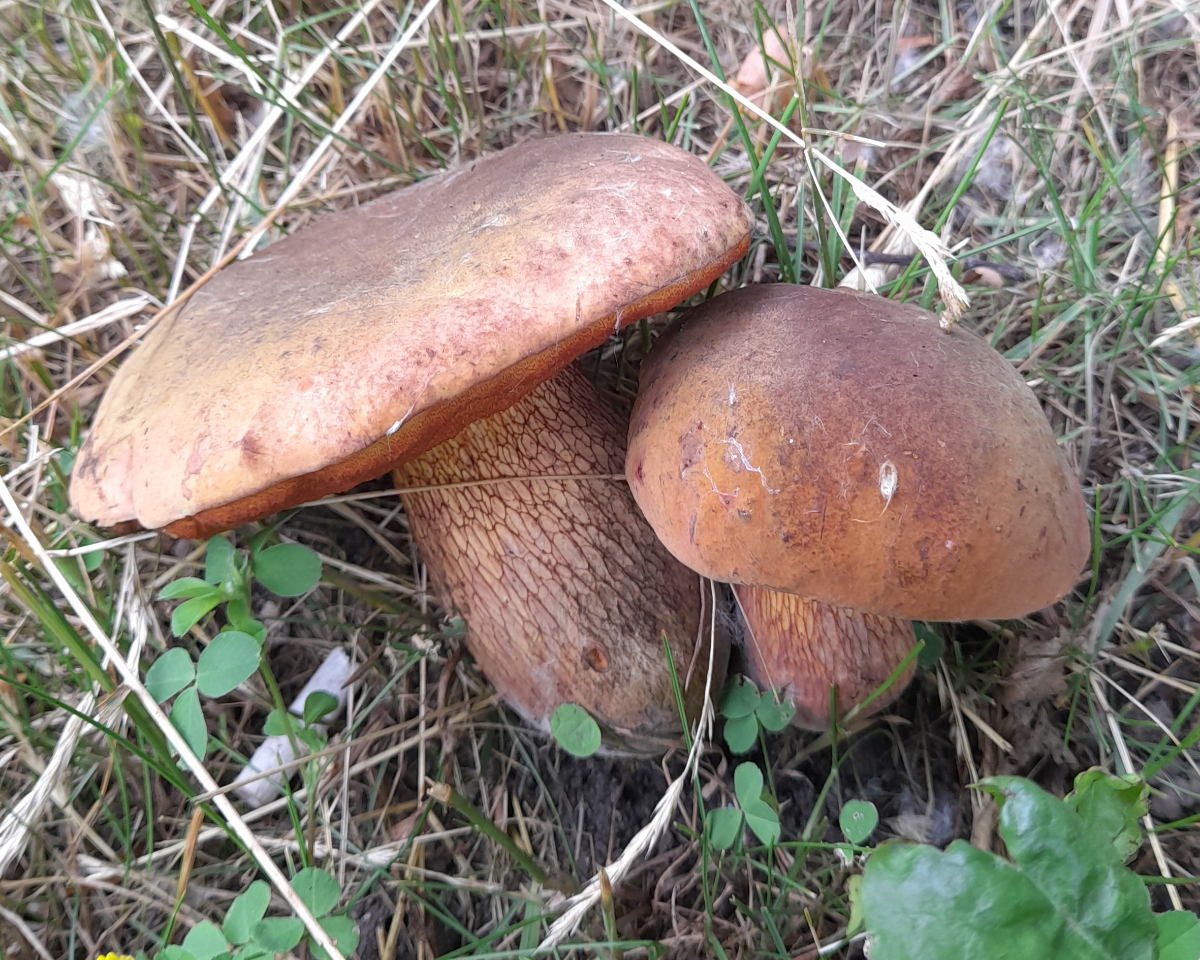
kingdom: Fungi
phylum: Basidiomycota
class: Agaricomycetes
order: Boletales
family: Boletaceae
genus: Suillellus
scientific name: Suillellus luridus
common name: Lurid bolete
